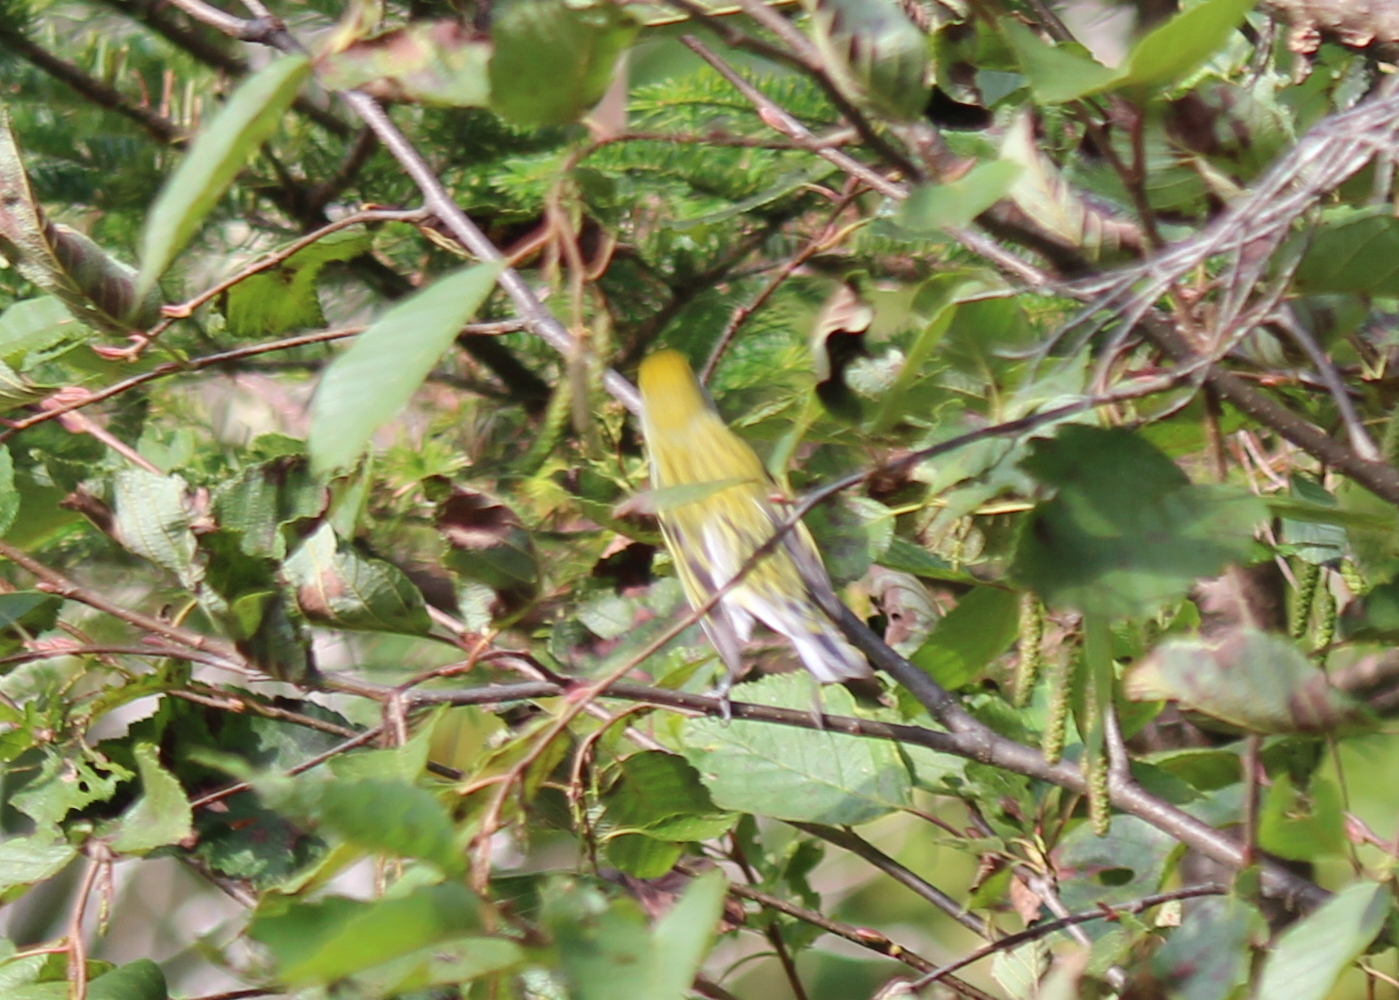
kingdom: Animalia
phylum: Chordata
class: Aves
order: Passeriformes
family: Parulidae
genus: Setophaga
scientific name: Setophaga pensylvanica
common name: Chestnut-sided warbler
